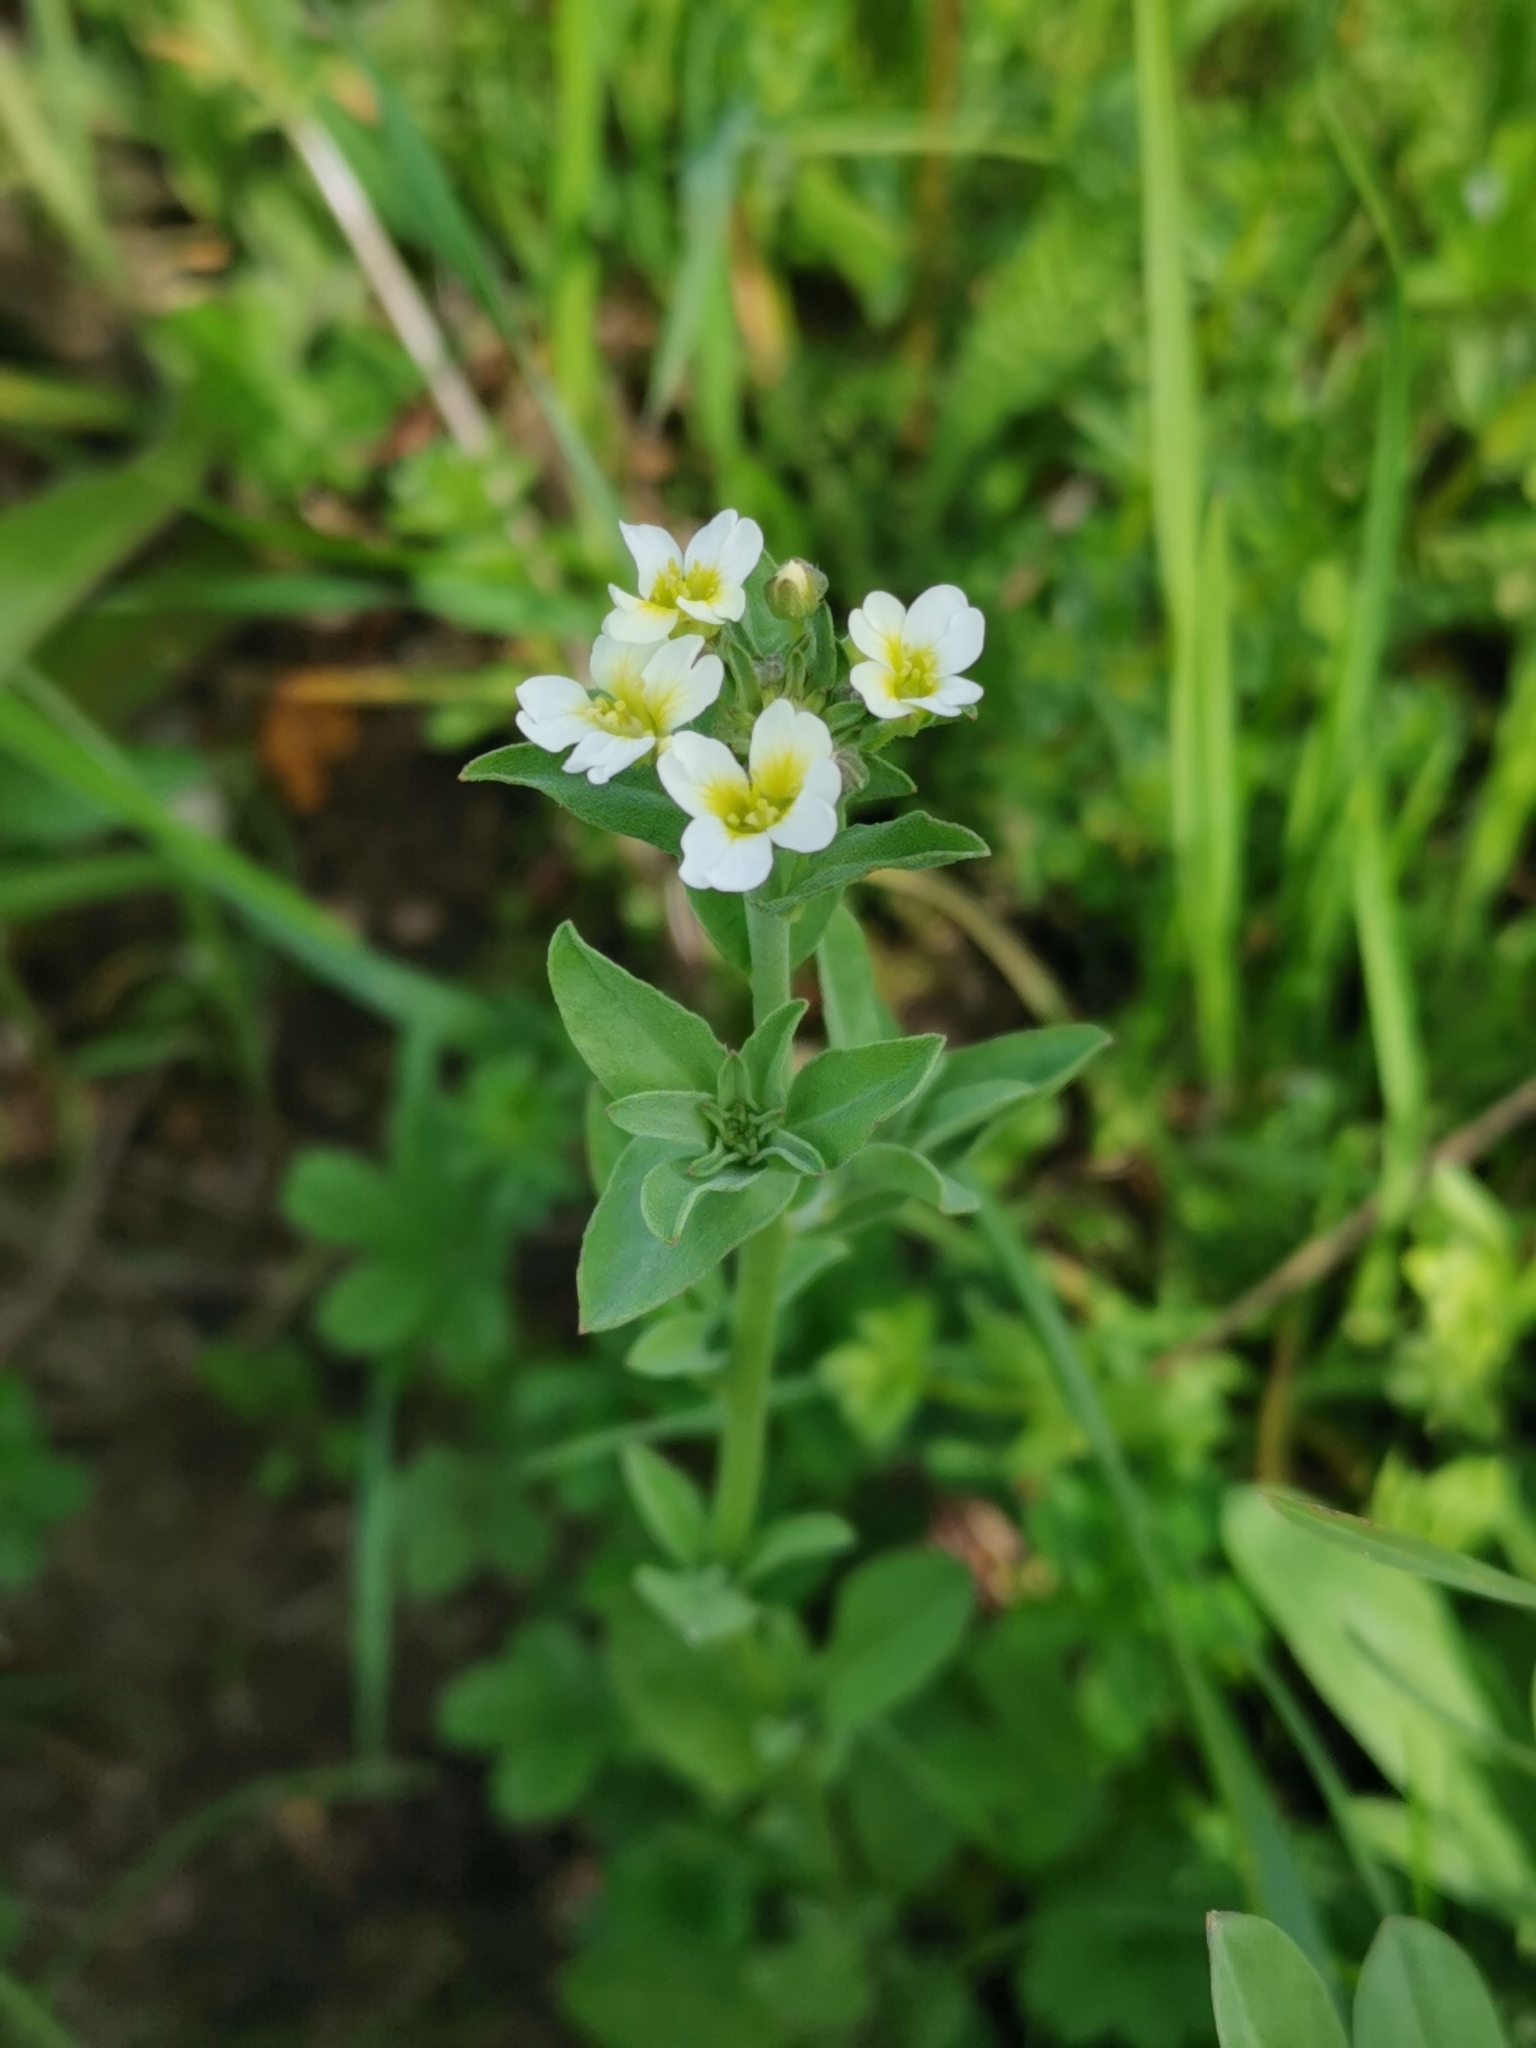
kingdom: Plantae
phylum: Tracheophyta
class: Magnoliopsida
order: Brassicales
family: Brassicaceae
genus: Berteroa
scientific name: Berteroa incana
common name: Hoary alison
